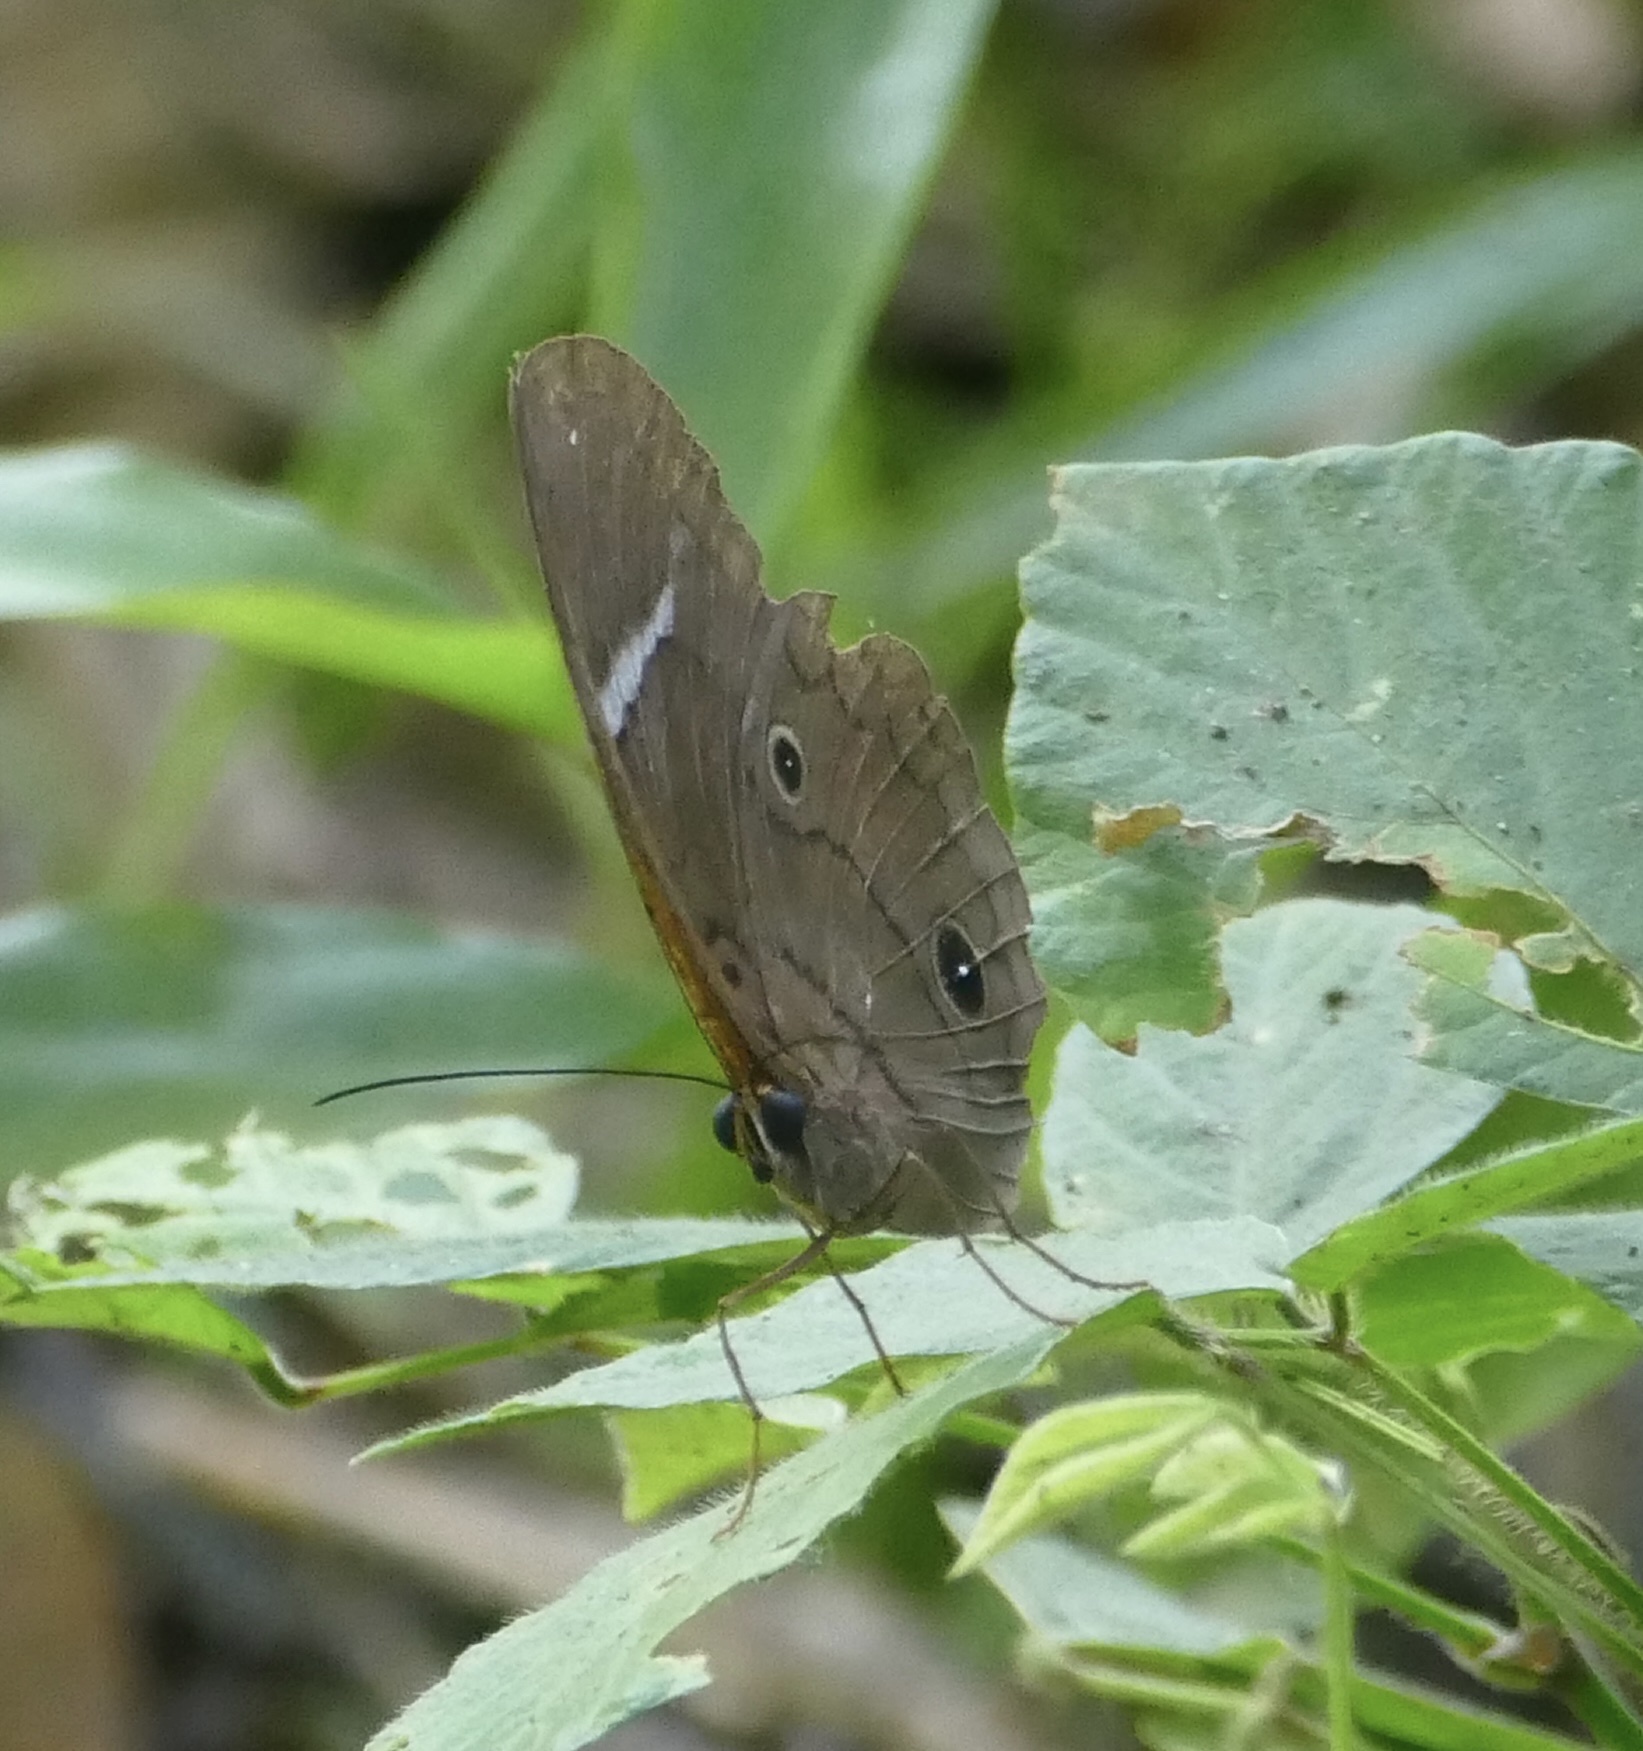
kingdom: Animalia
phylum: Arthropoda
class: Insecta
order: Lepidoptera
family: Nymphalidae
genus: Faunis
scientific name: Faunis menado
